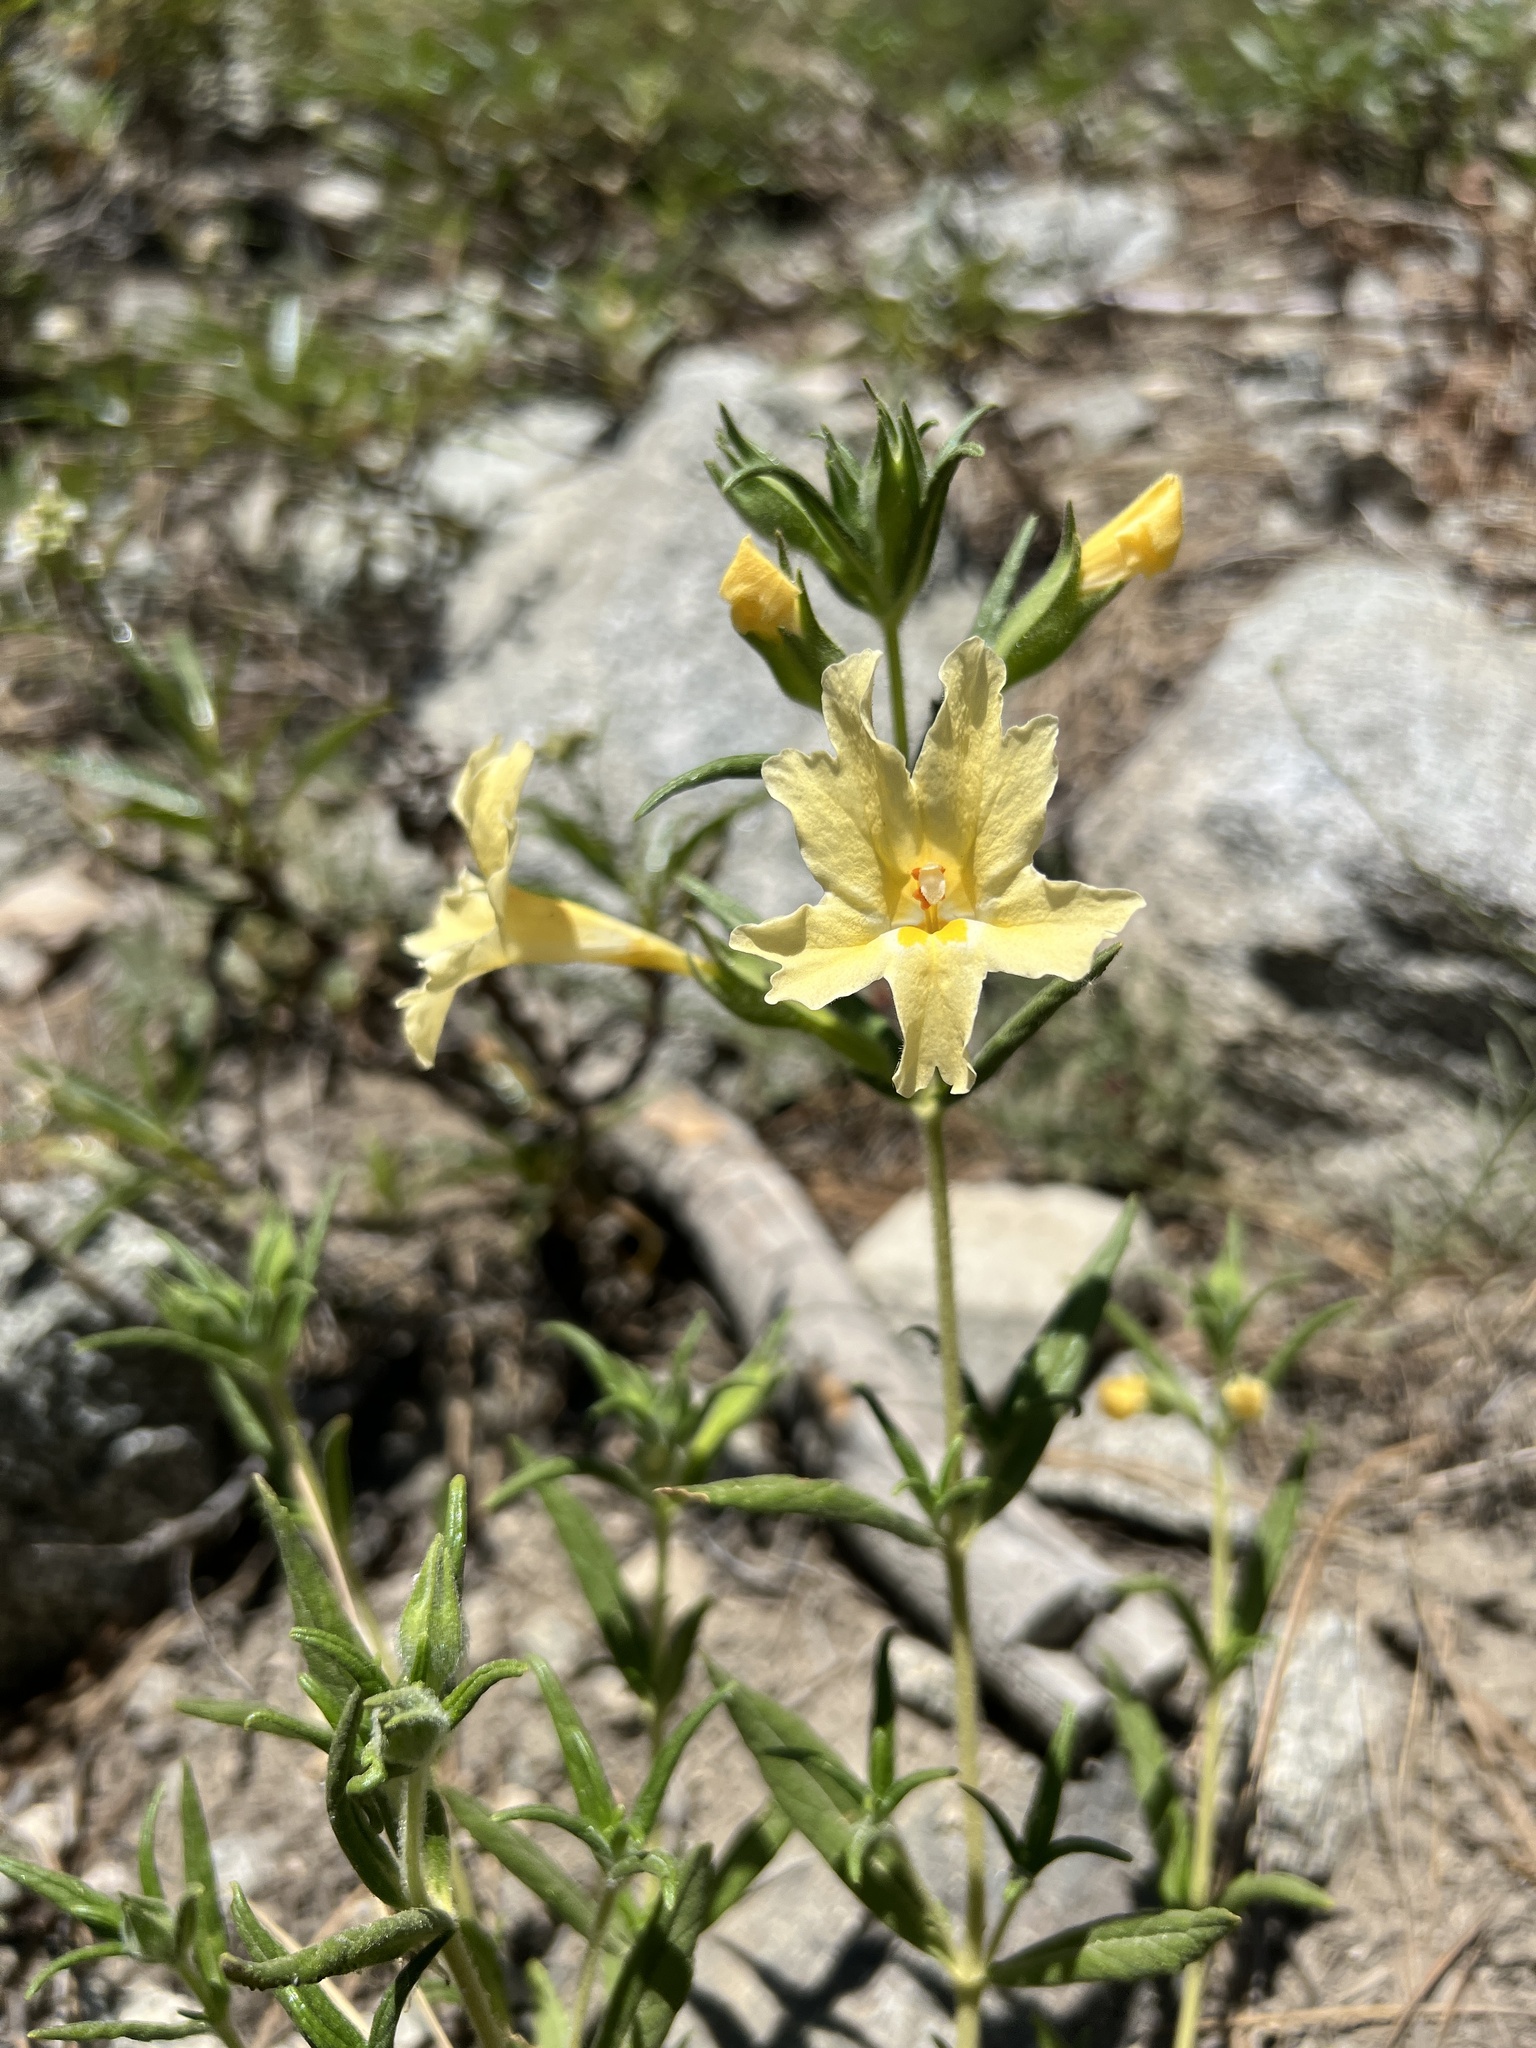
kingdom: Plantae
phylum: Tracheophyta
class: Magnoliopsida
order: Lamiales
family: Phrymaceae
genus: Diplacus
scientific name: Diplacus calycinus
